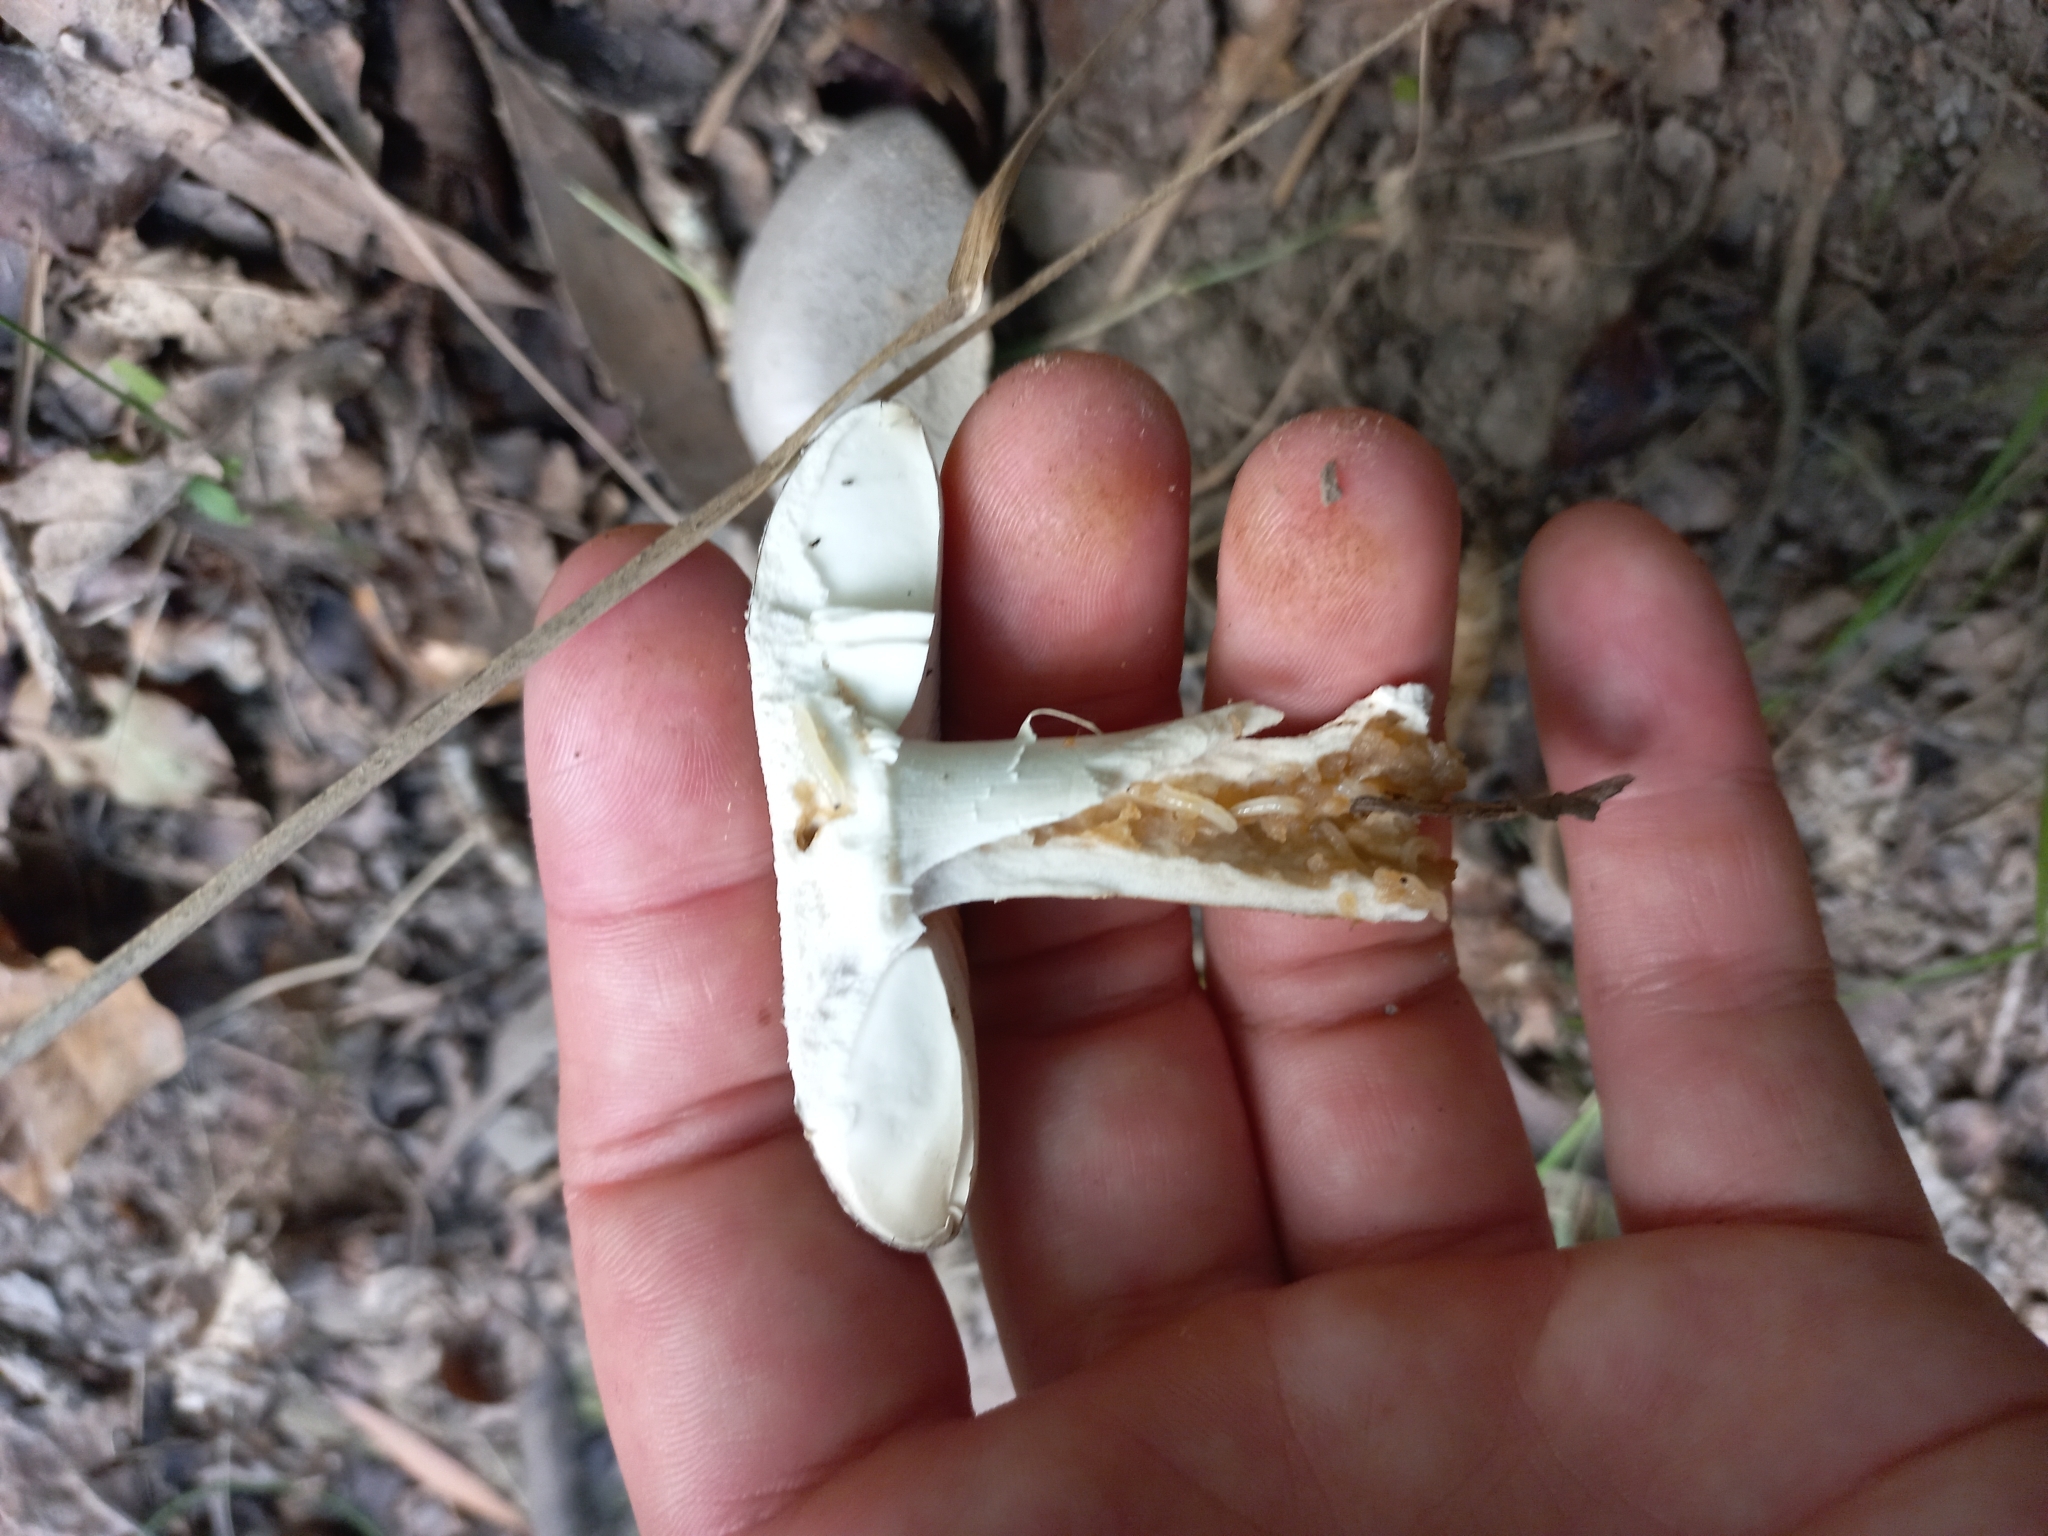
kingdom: Fungi
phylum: Basidiomycota
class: Agaricomycetes
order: Agaricales
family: Amanitaceae
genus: Amanita
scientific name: Amanita excelsa
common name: European false blusher
